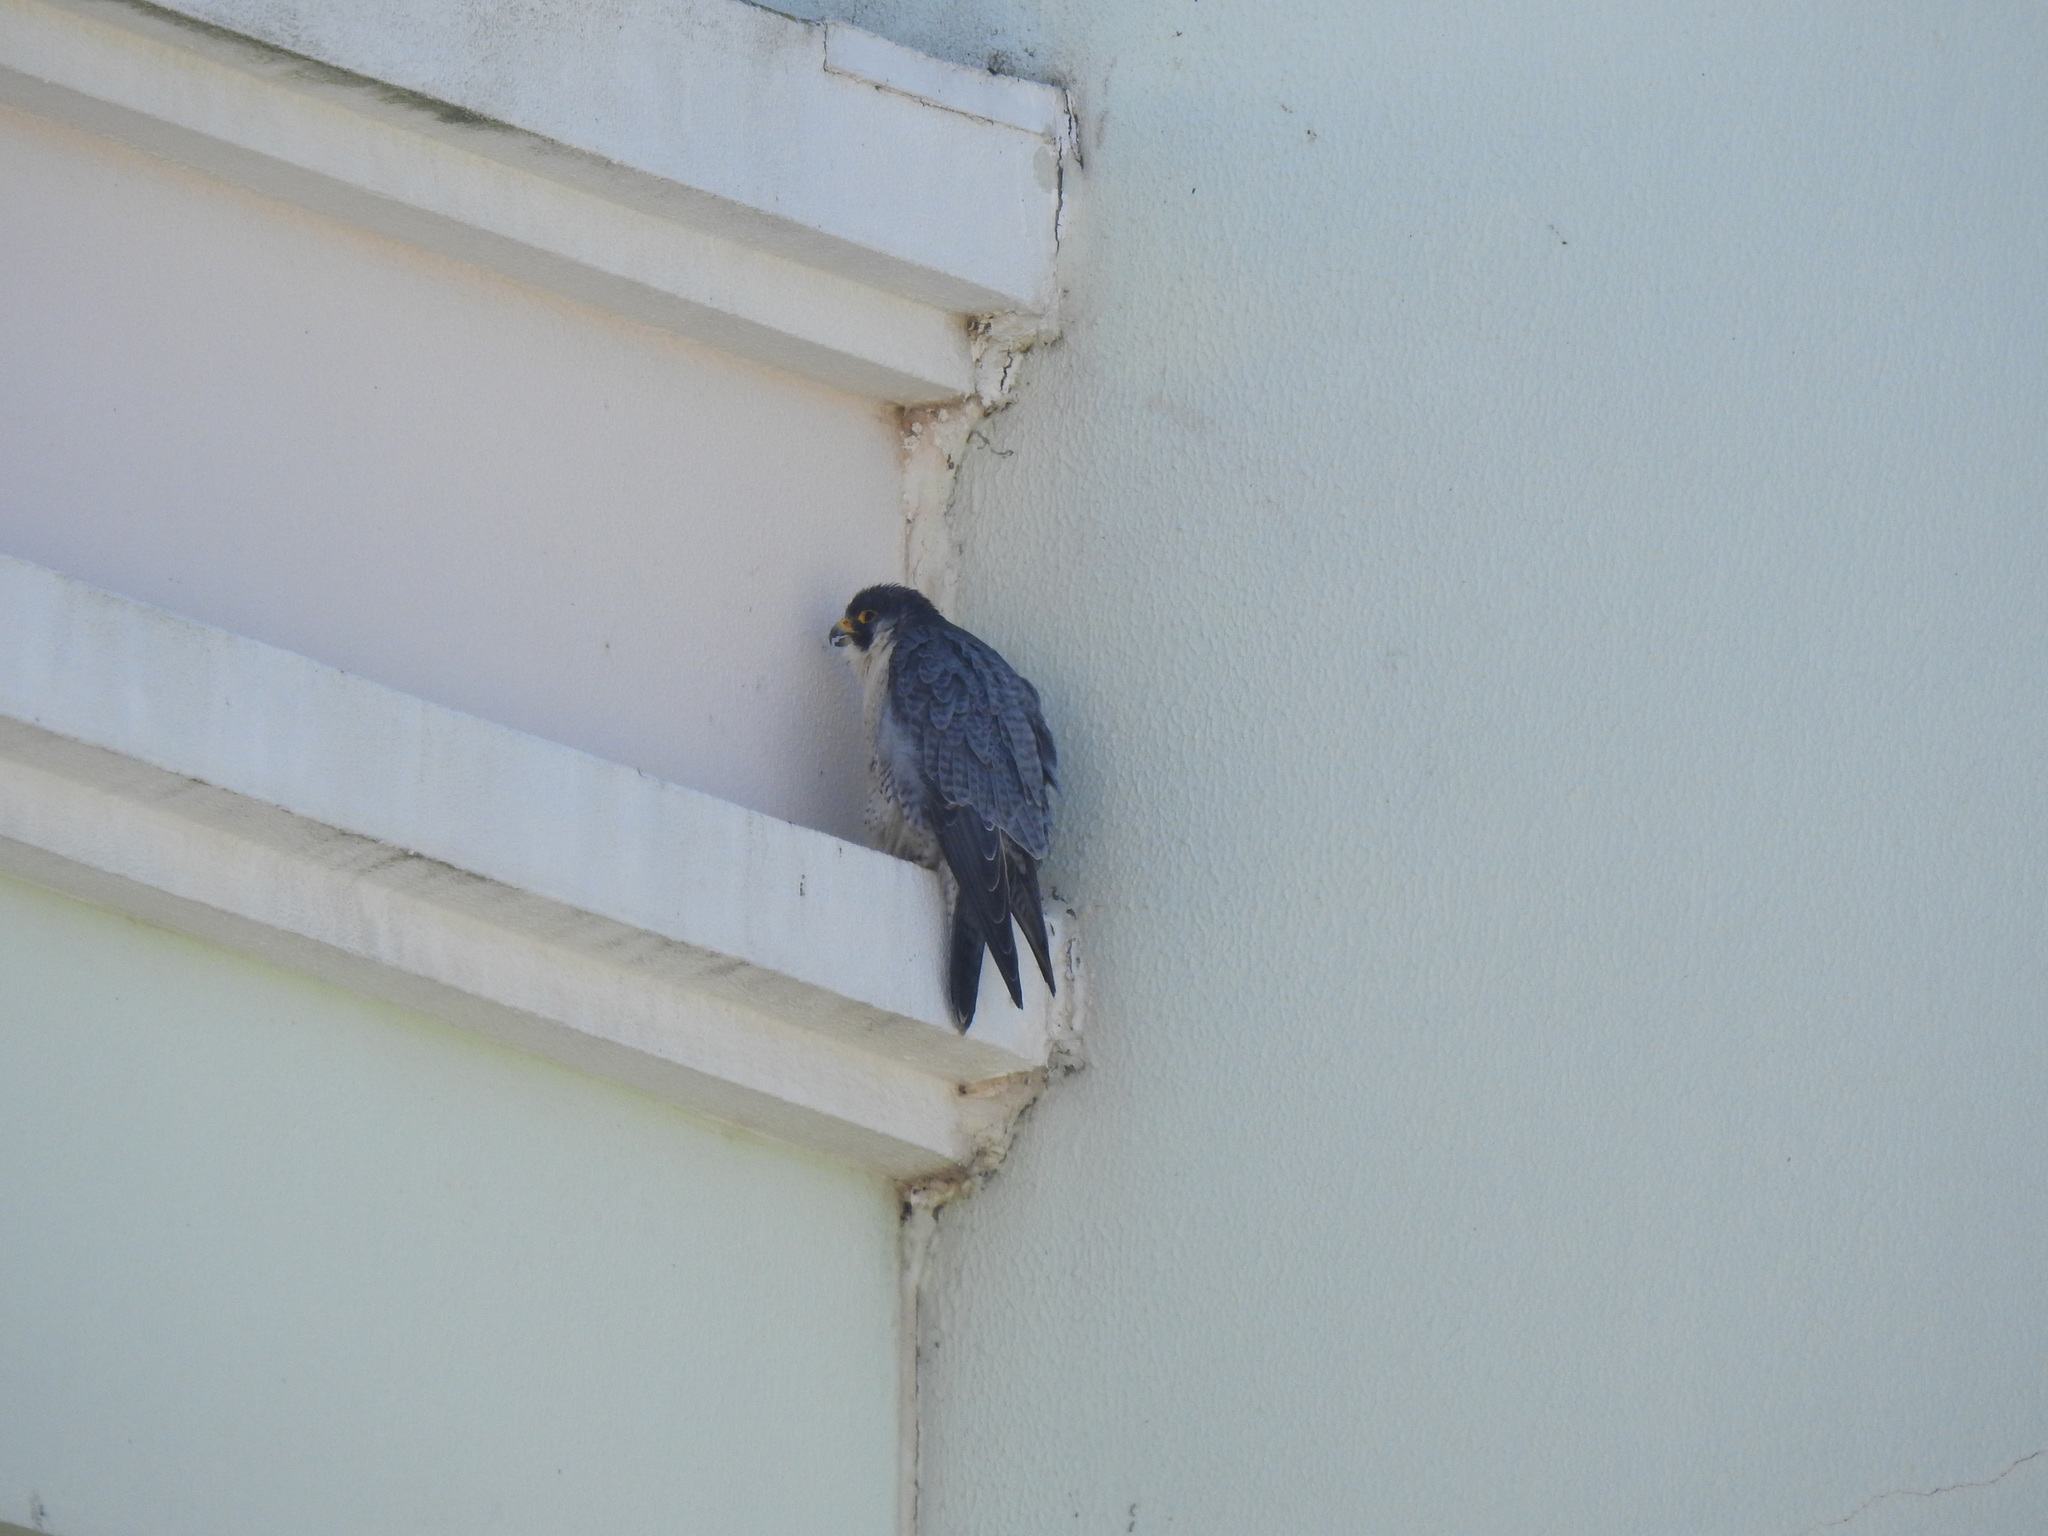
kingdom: Animalia
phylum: Chordata
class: Aves
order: Falconiformes
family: Falconidae
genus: Falco
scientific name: Falco peregrinus
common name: Peregrine falcon
